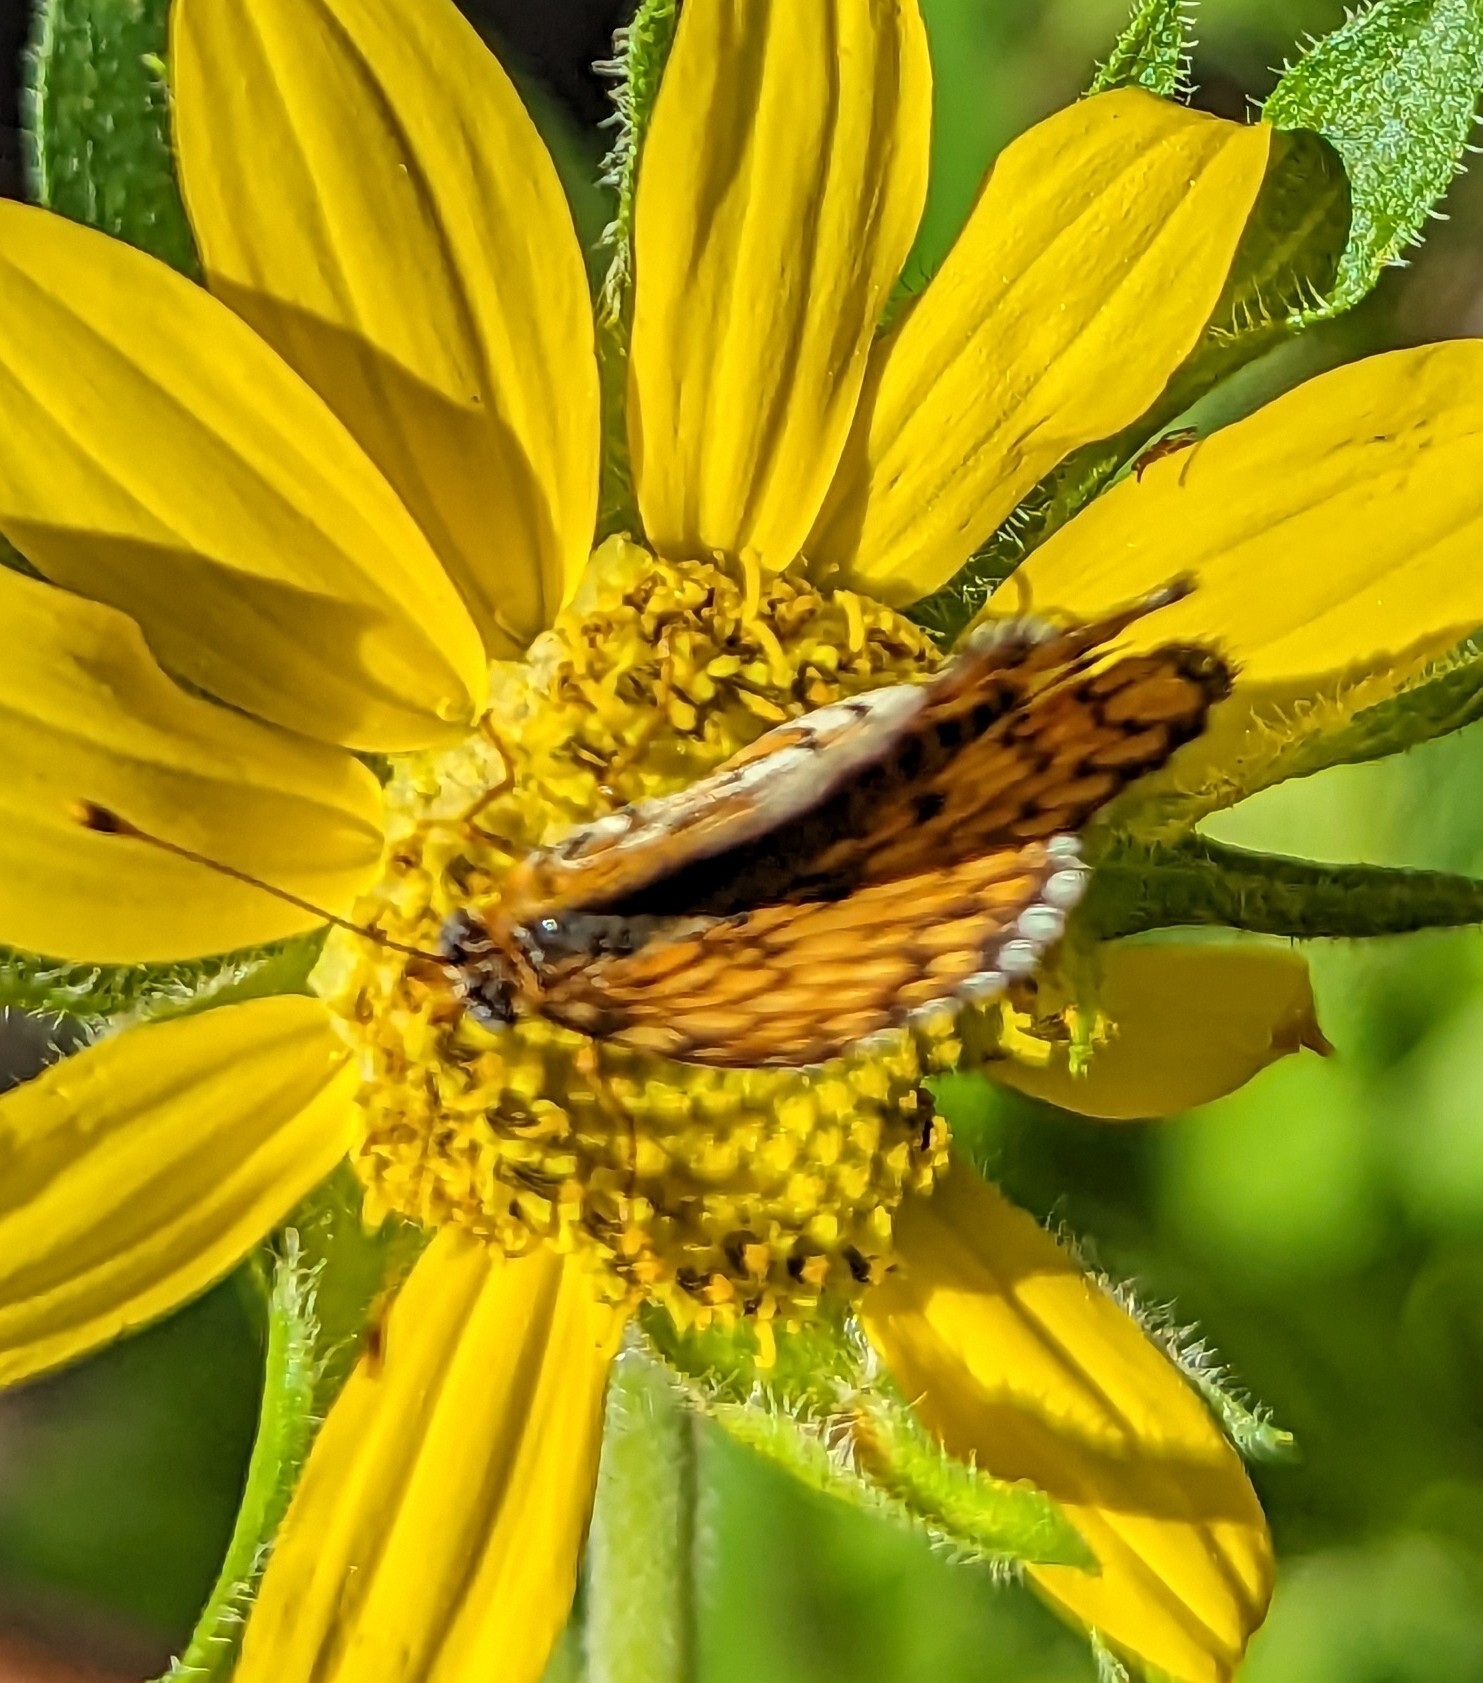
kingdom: Animalia
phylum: Arthropoda
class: Insecta
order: Lepidoptera
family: Nymphalidae
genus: Poladryas
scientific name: Poladryas minuta
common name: Dotted checkerspot
